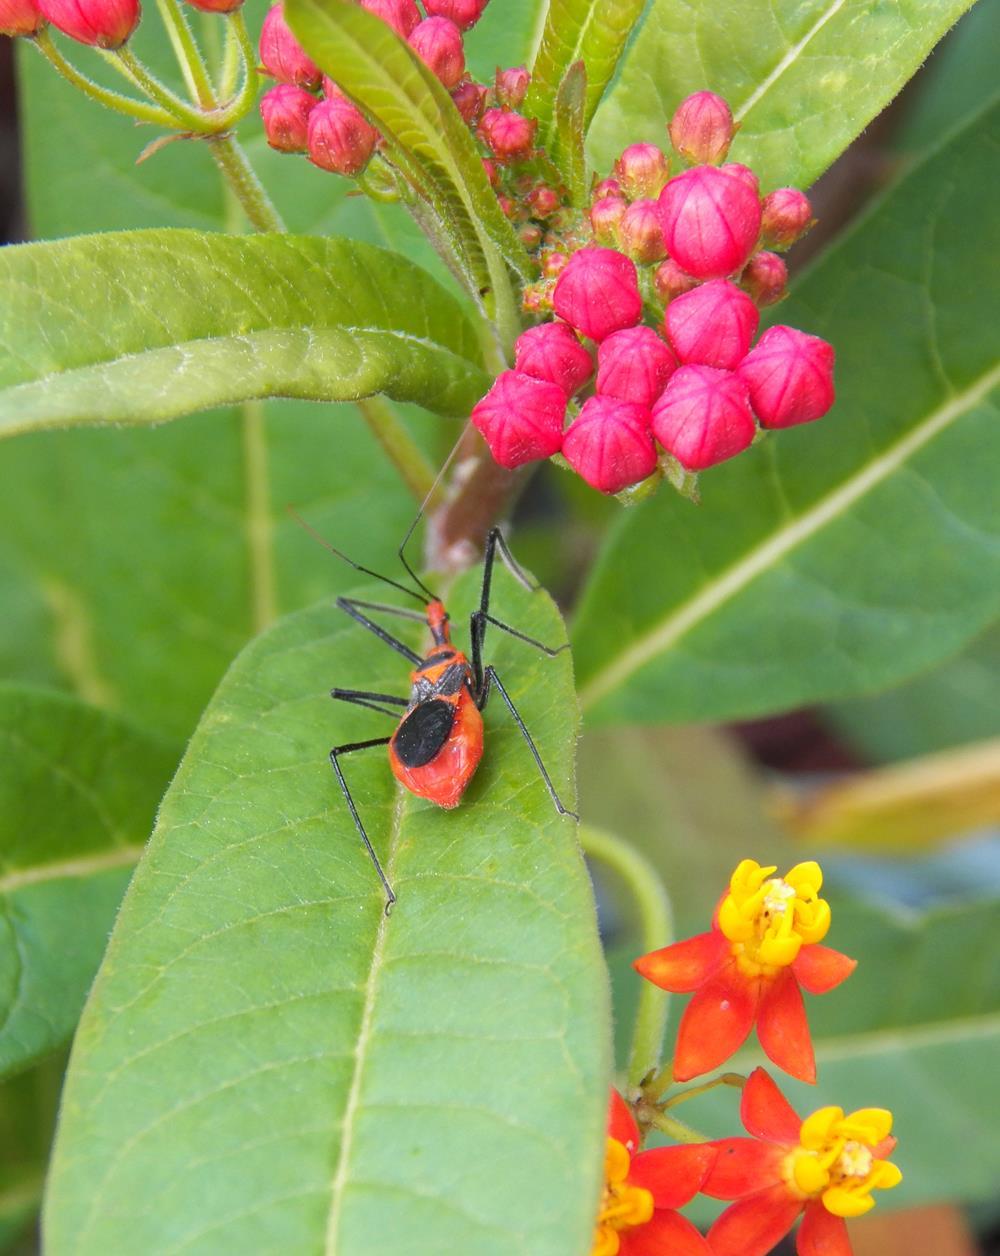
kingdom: Animalia
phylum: Arthropoda
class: Insecta
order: Hemiptera
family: Reduviidae
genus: Zelus
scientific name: Zelus longipes
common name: Milkweed assassin bug
